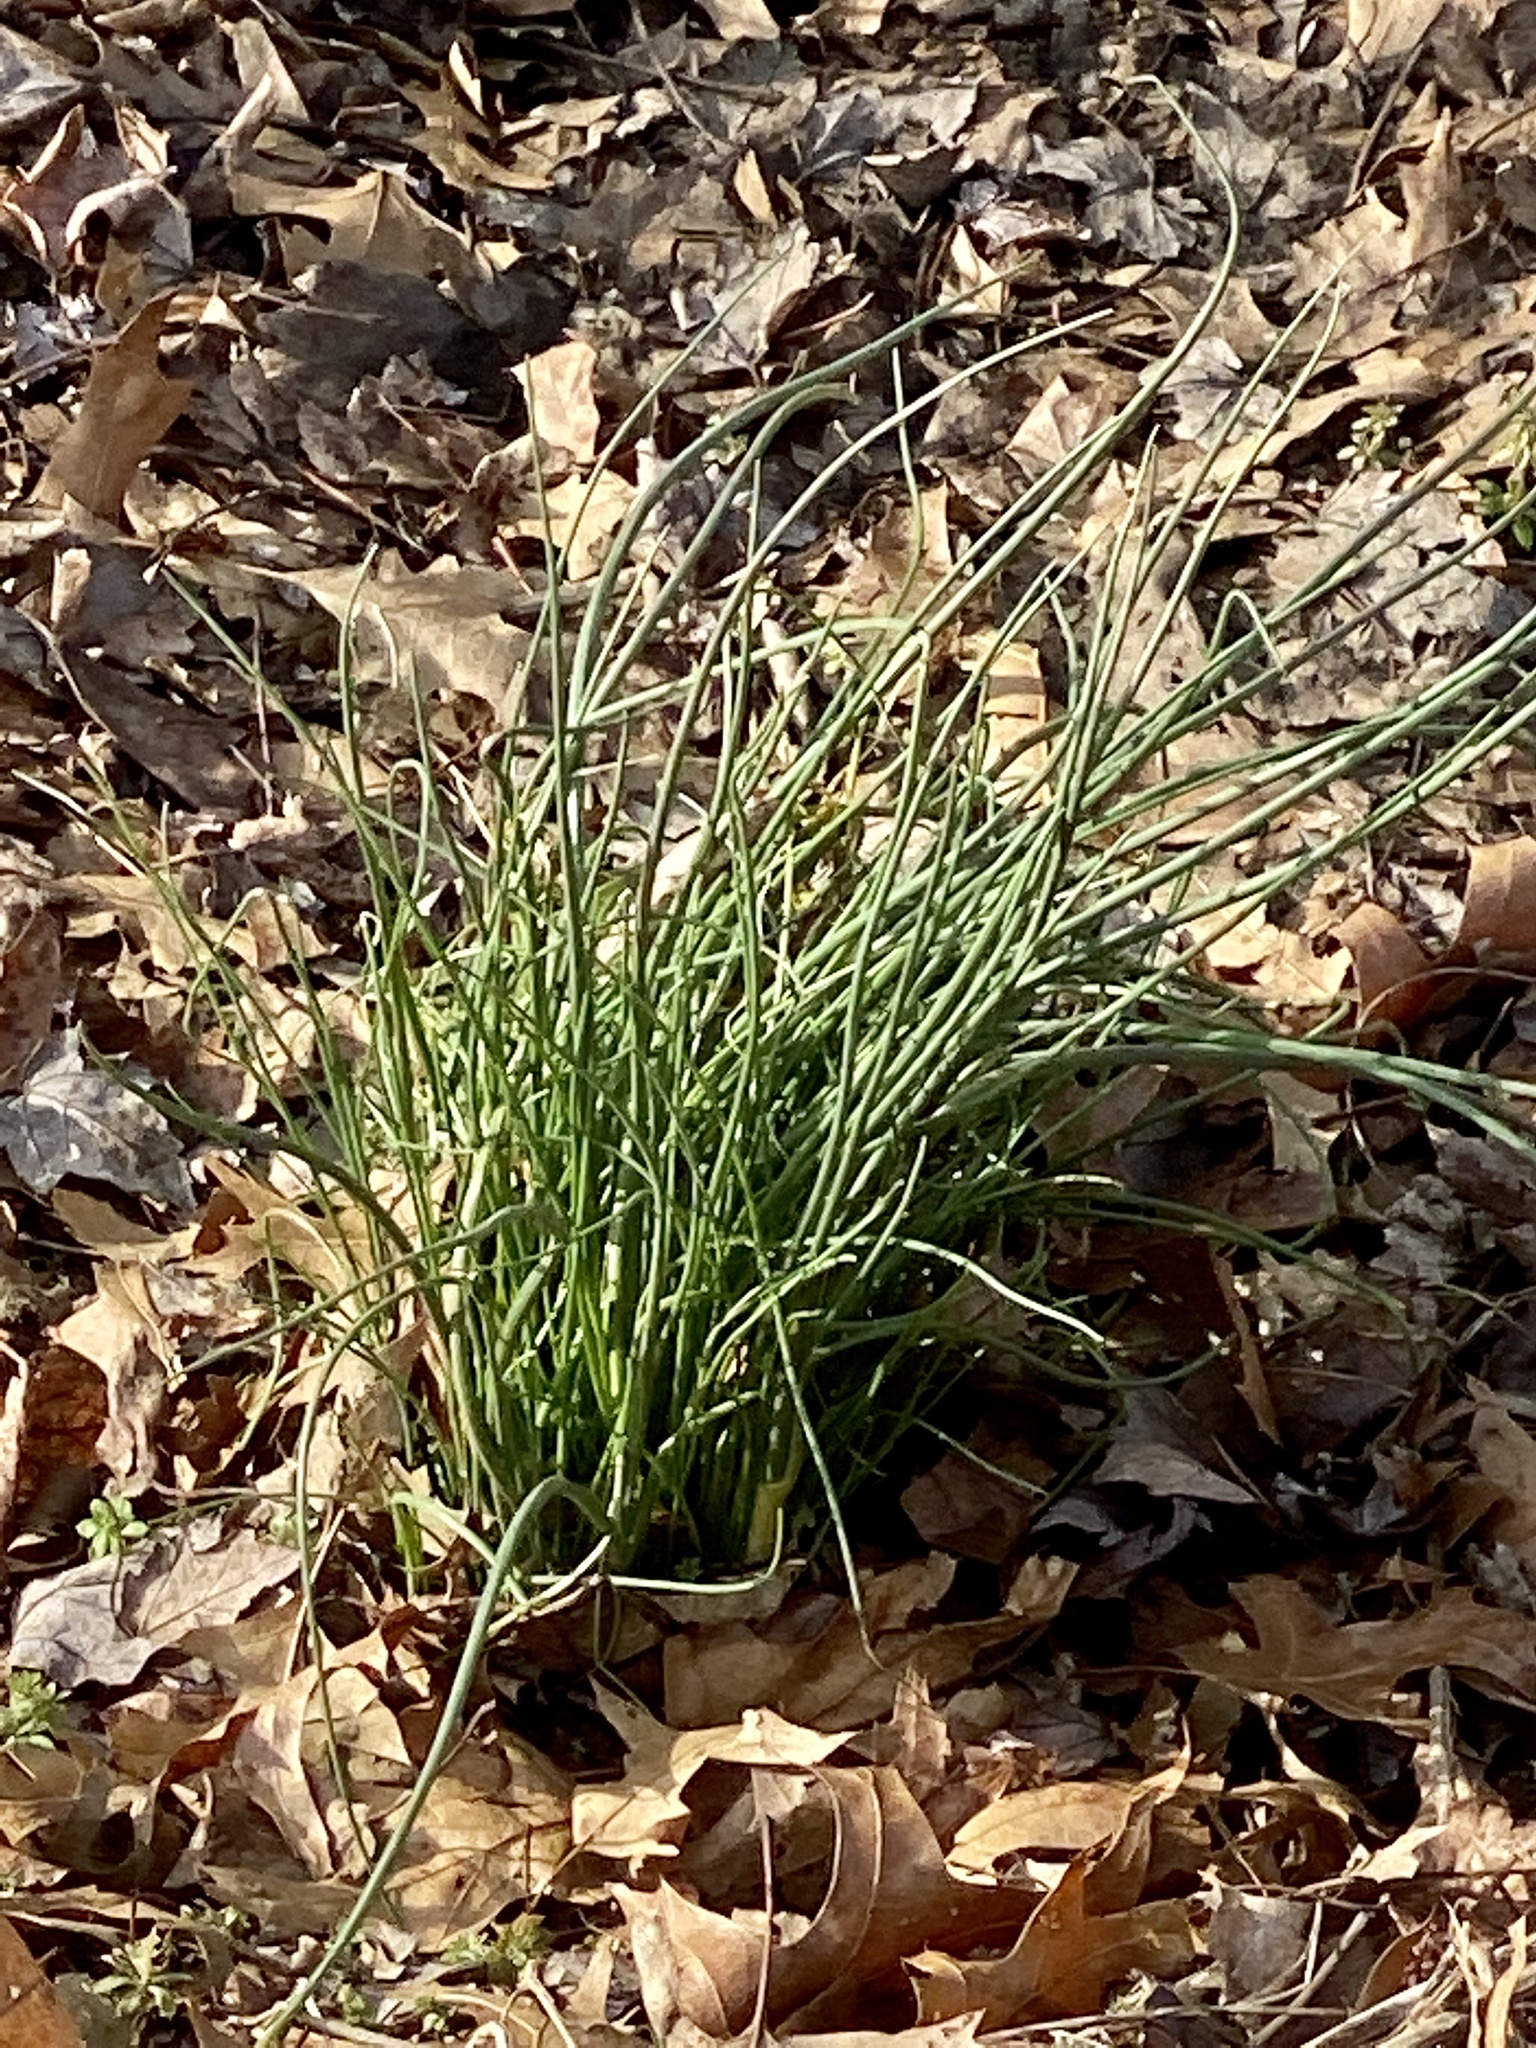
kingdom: Plantae
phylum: Tracheophyta
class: Liliopsida
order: Asparagales
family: Amaryllidaceae
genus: Allium
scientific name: Allium vineale
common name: Crow garlic
